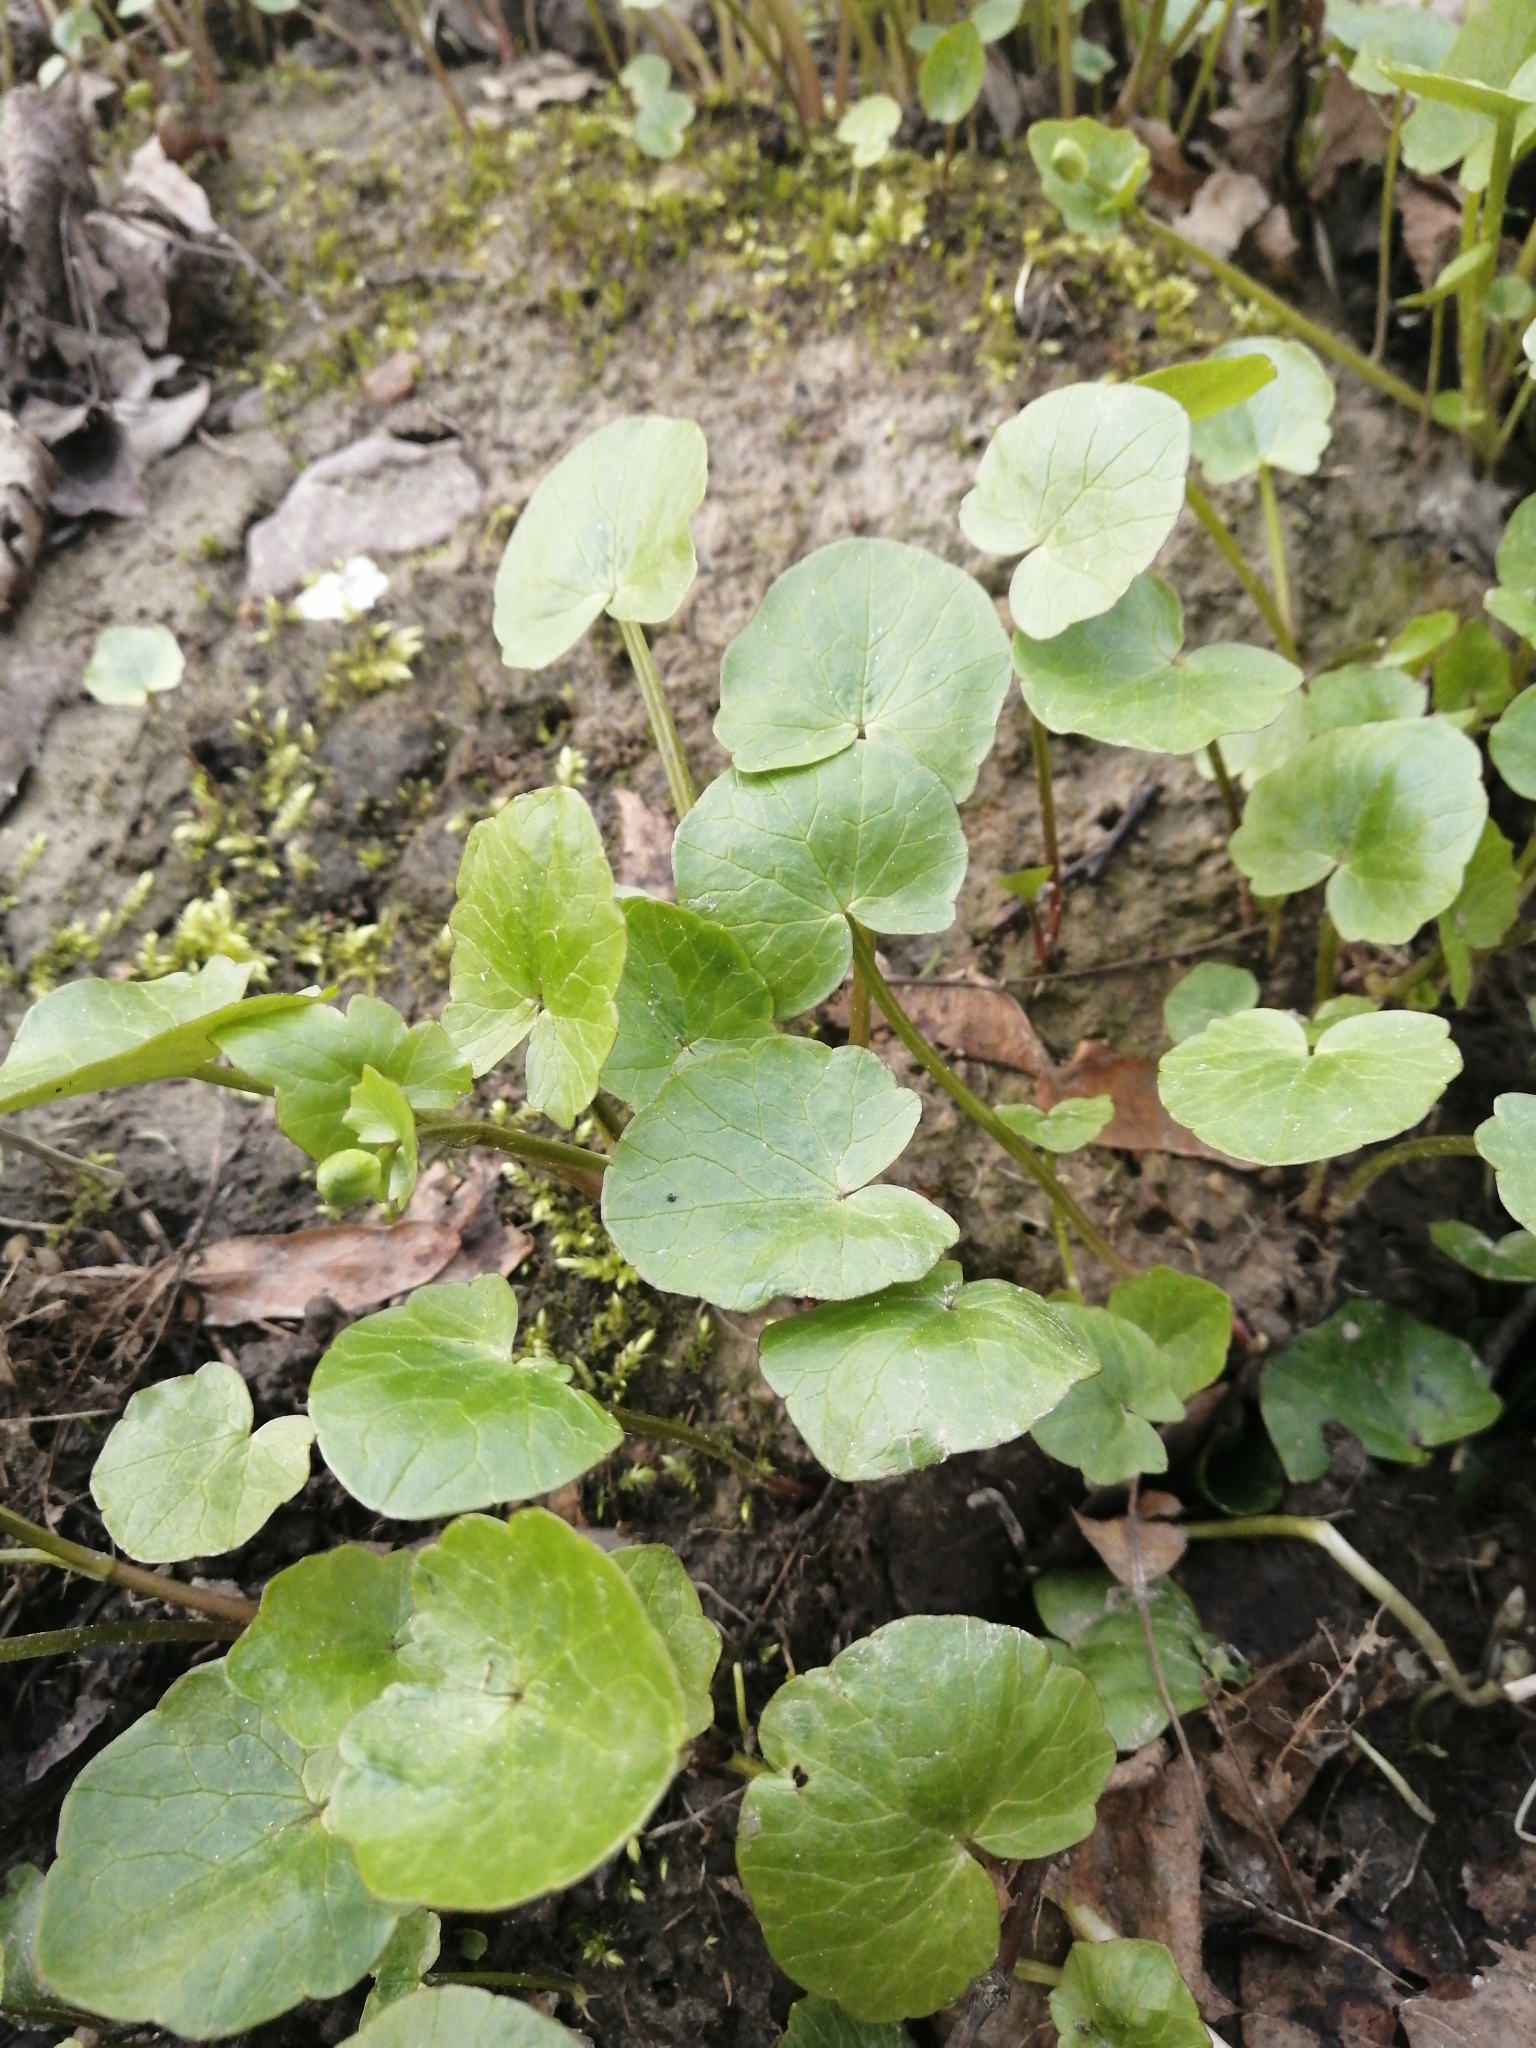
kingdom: Plantae
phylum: Tracheophyta
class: Magnoliopsida
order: Ranunculales
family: Ranunculaceae
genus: Ficaria
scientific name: Ficaria verna
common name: Lesser celandine
